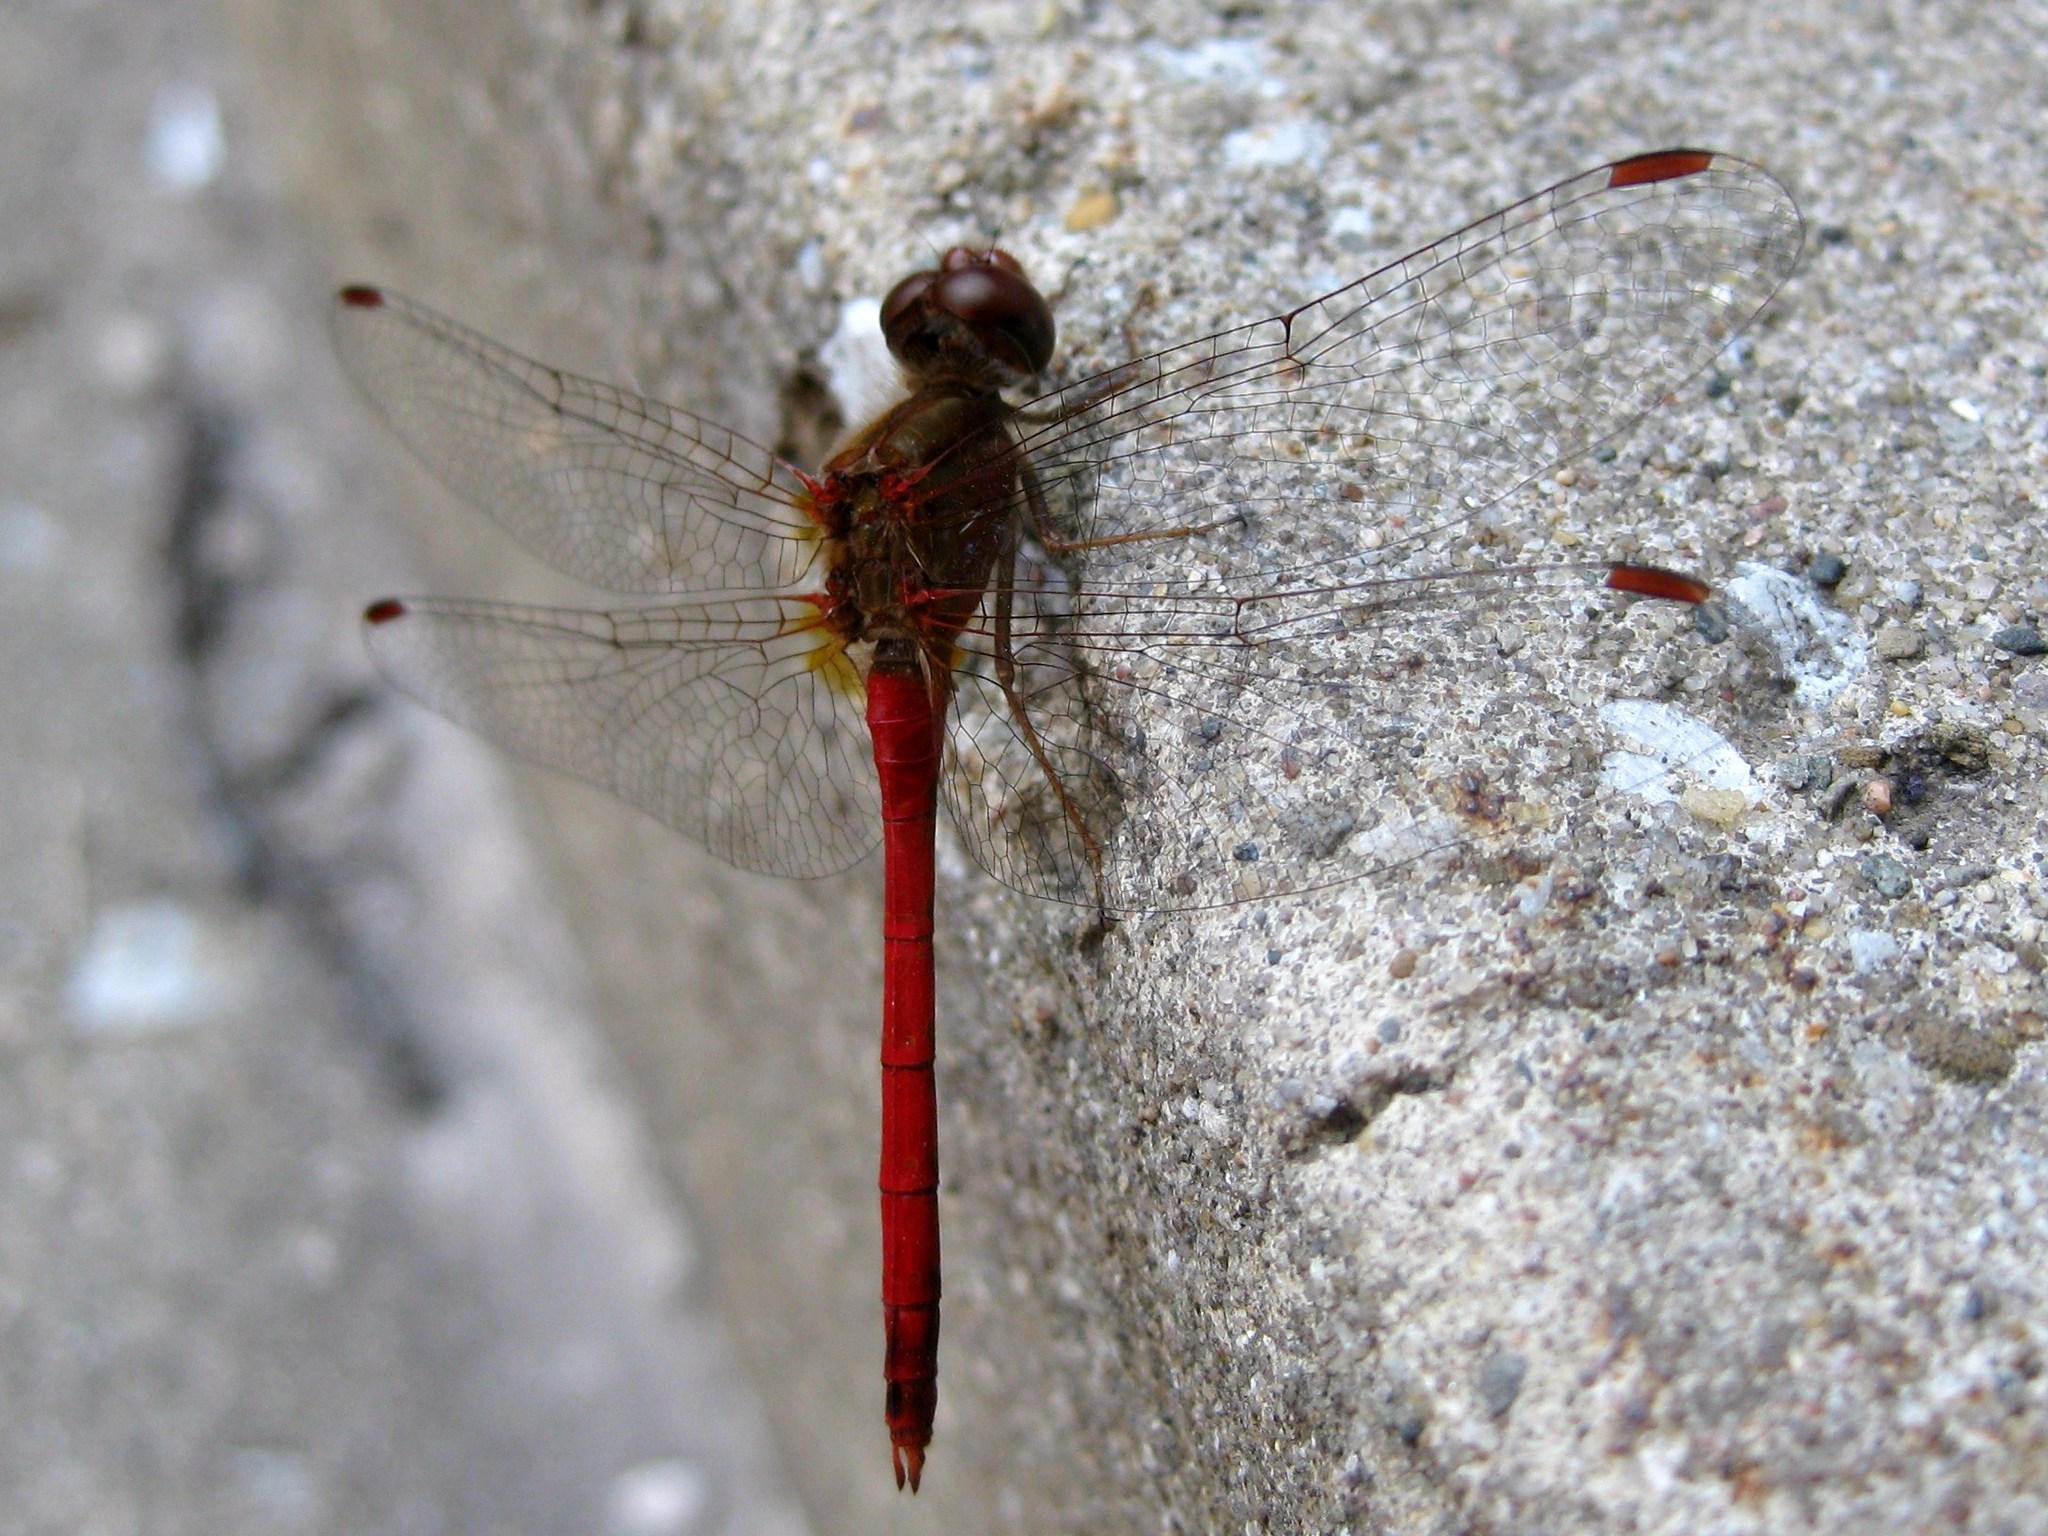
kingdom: Animalia
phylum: Arthropoda
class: Insecta
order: Odonata
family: Libellulidae
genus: Sympetrum
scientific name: Sympetrum vicinum
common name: Autumn meadowhawk
